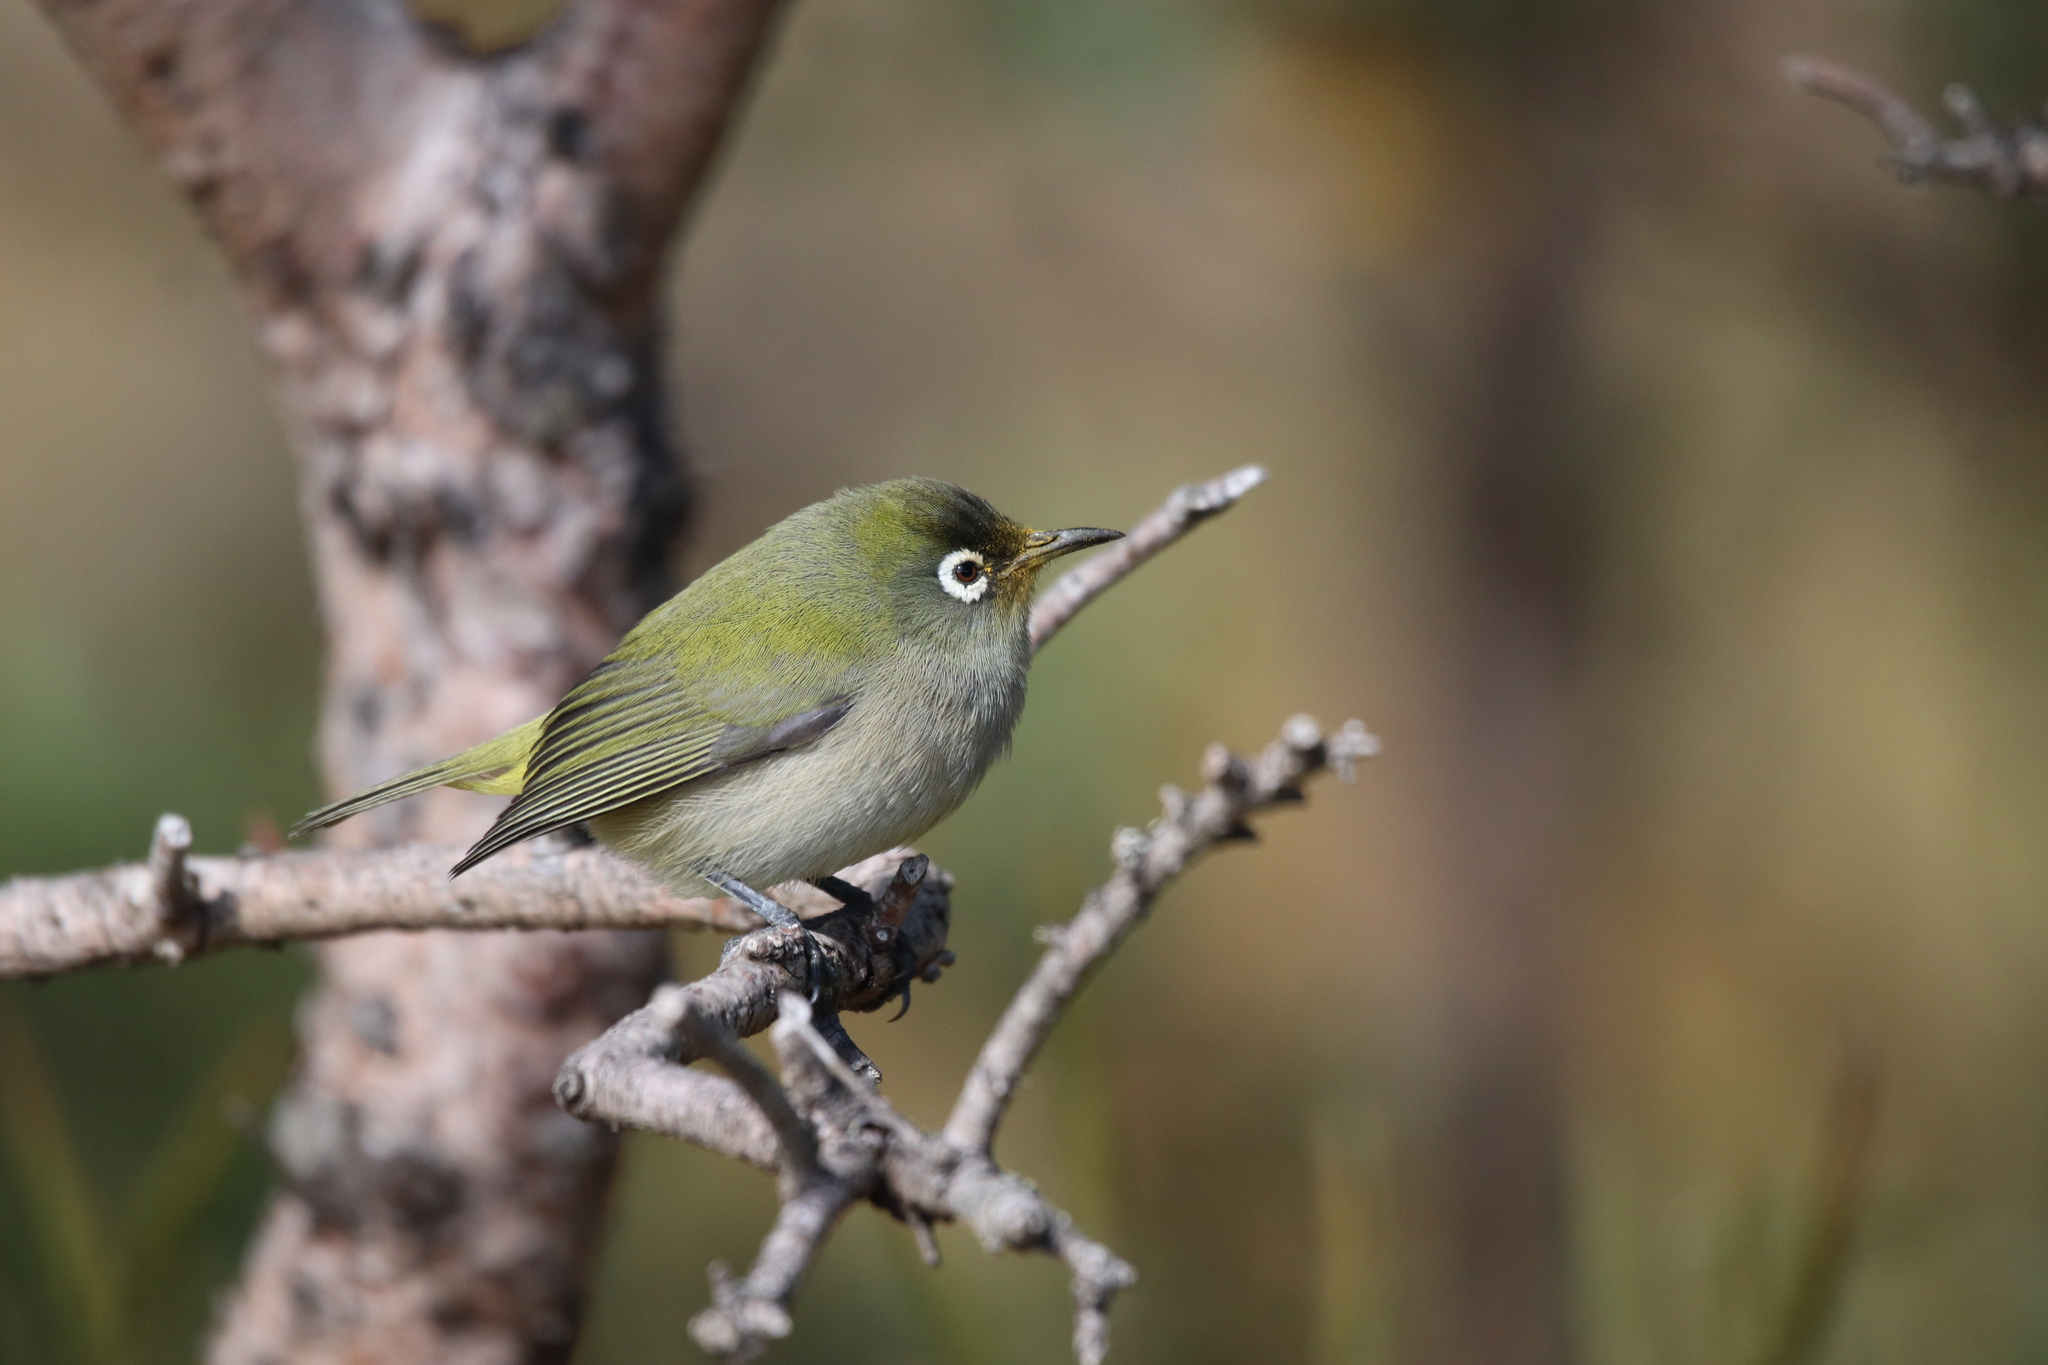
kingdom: Animalia
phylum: Chordata
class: Aves
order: Passeriformes
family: Zosteropidae
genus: Zosterops
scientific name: Zosterops olivaceus
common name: Reunion olive white-eye
